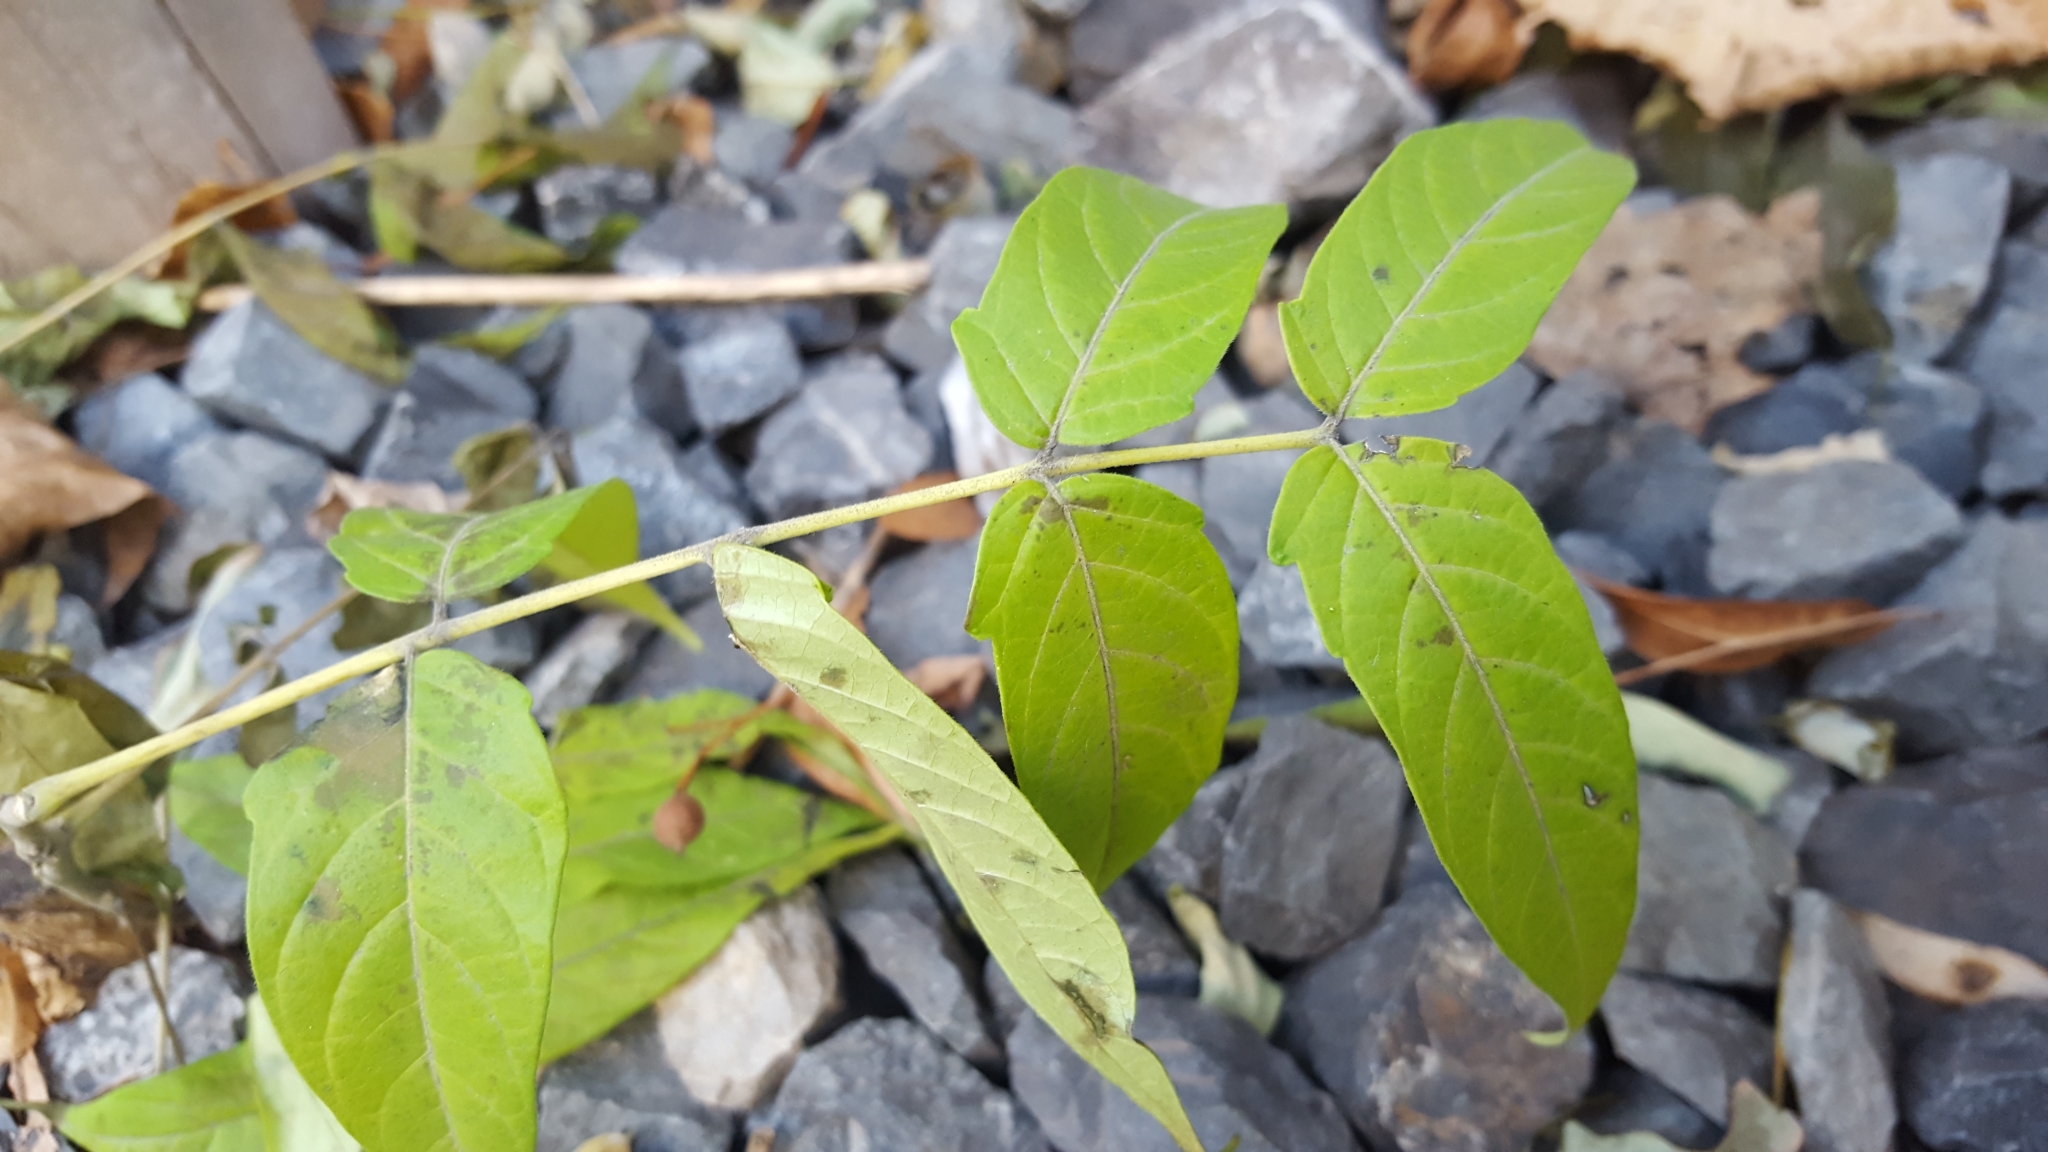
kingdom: Plantae
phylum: Tracheophyta
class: Magnoliopsida
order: Sapindales
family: Simaroubaceae
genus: Ailanthus
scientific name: Ailanthus altissima
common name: Tree-of-heaven
